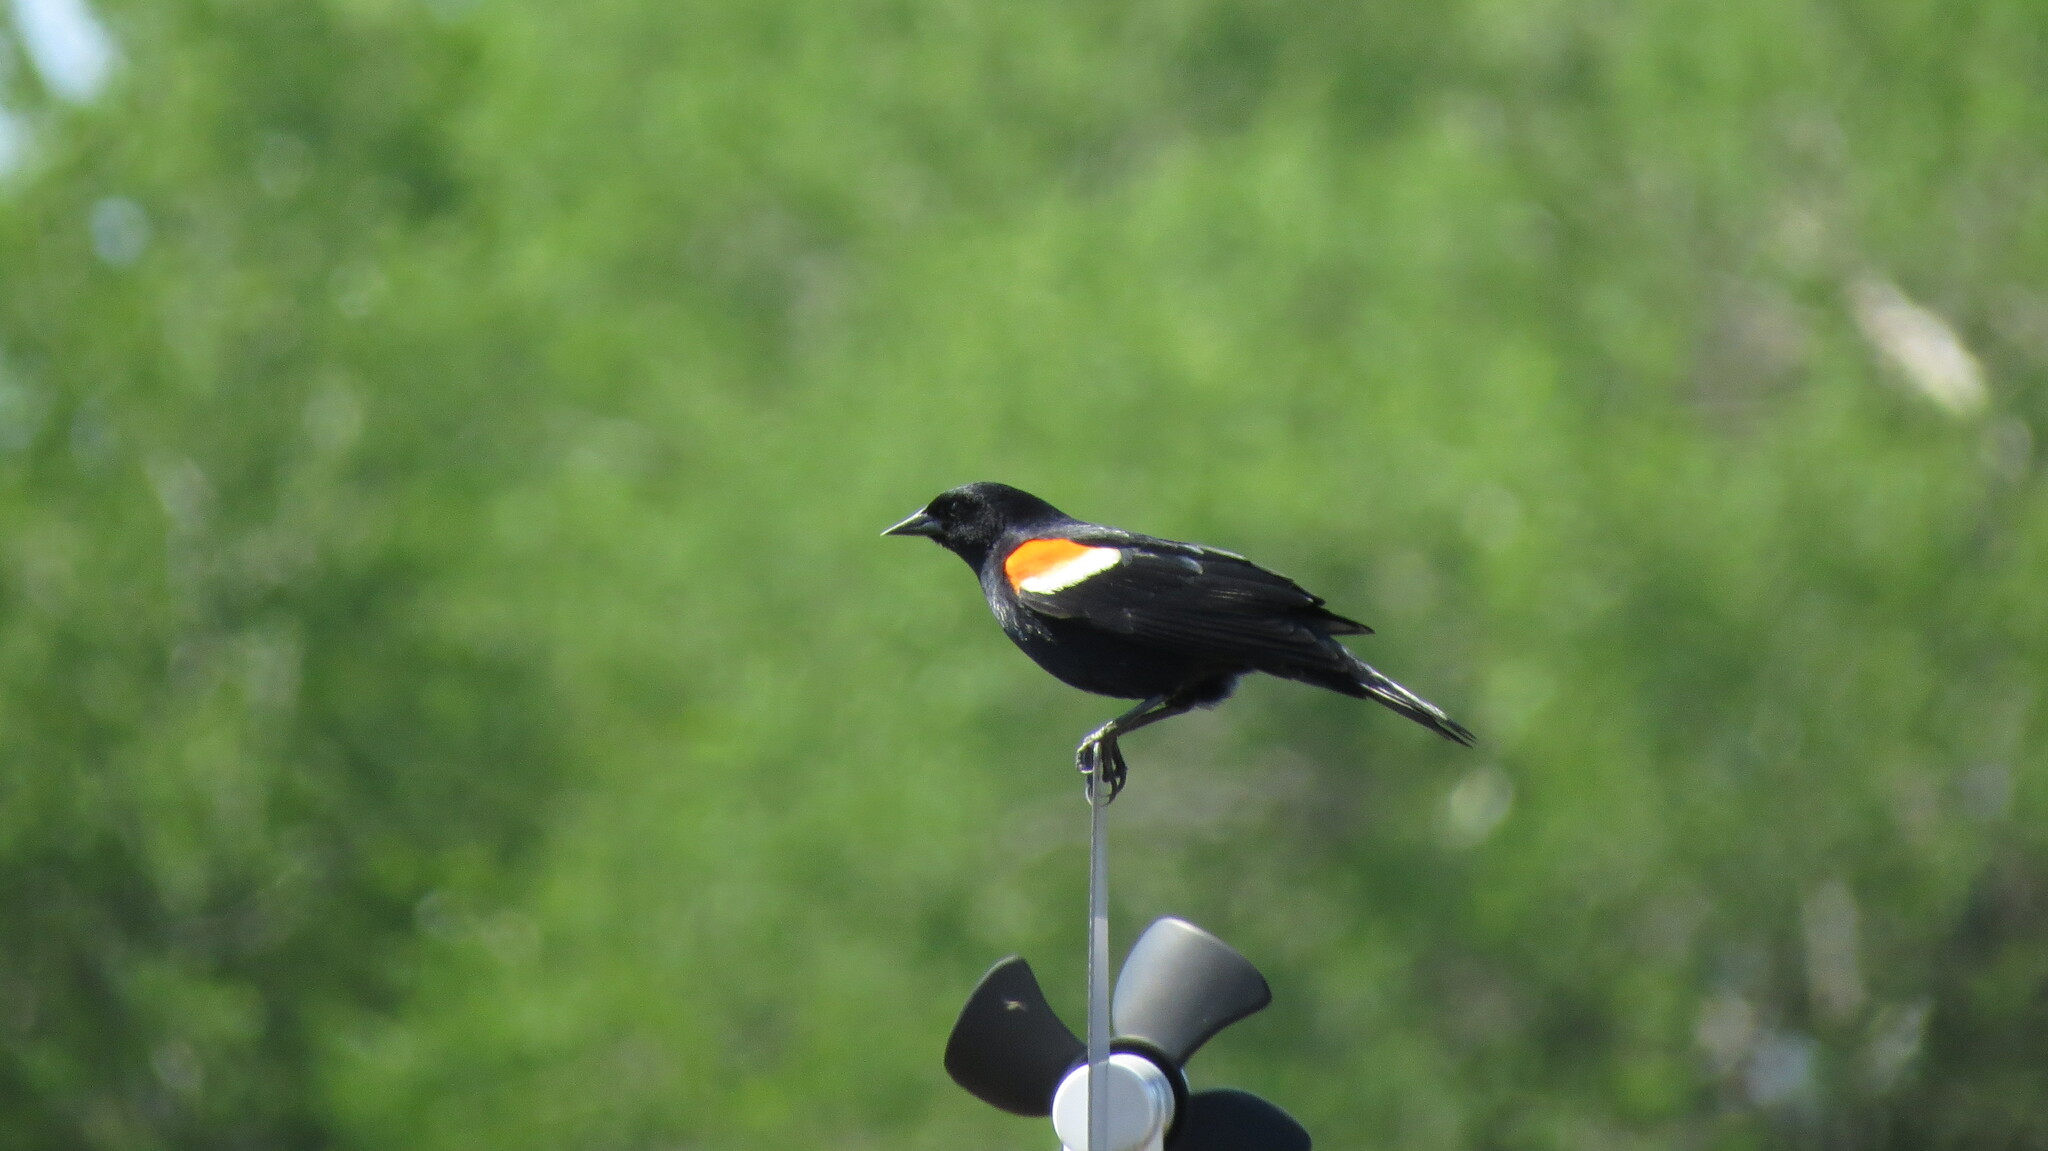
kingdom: Animalia
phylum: Chordata
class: Aves
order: Passeriformes
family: Icteridae
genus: Agelaius
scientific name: Agelaius phoeniceus
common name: Red-winged blackbird
